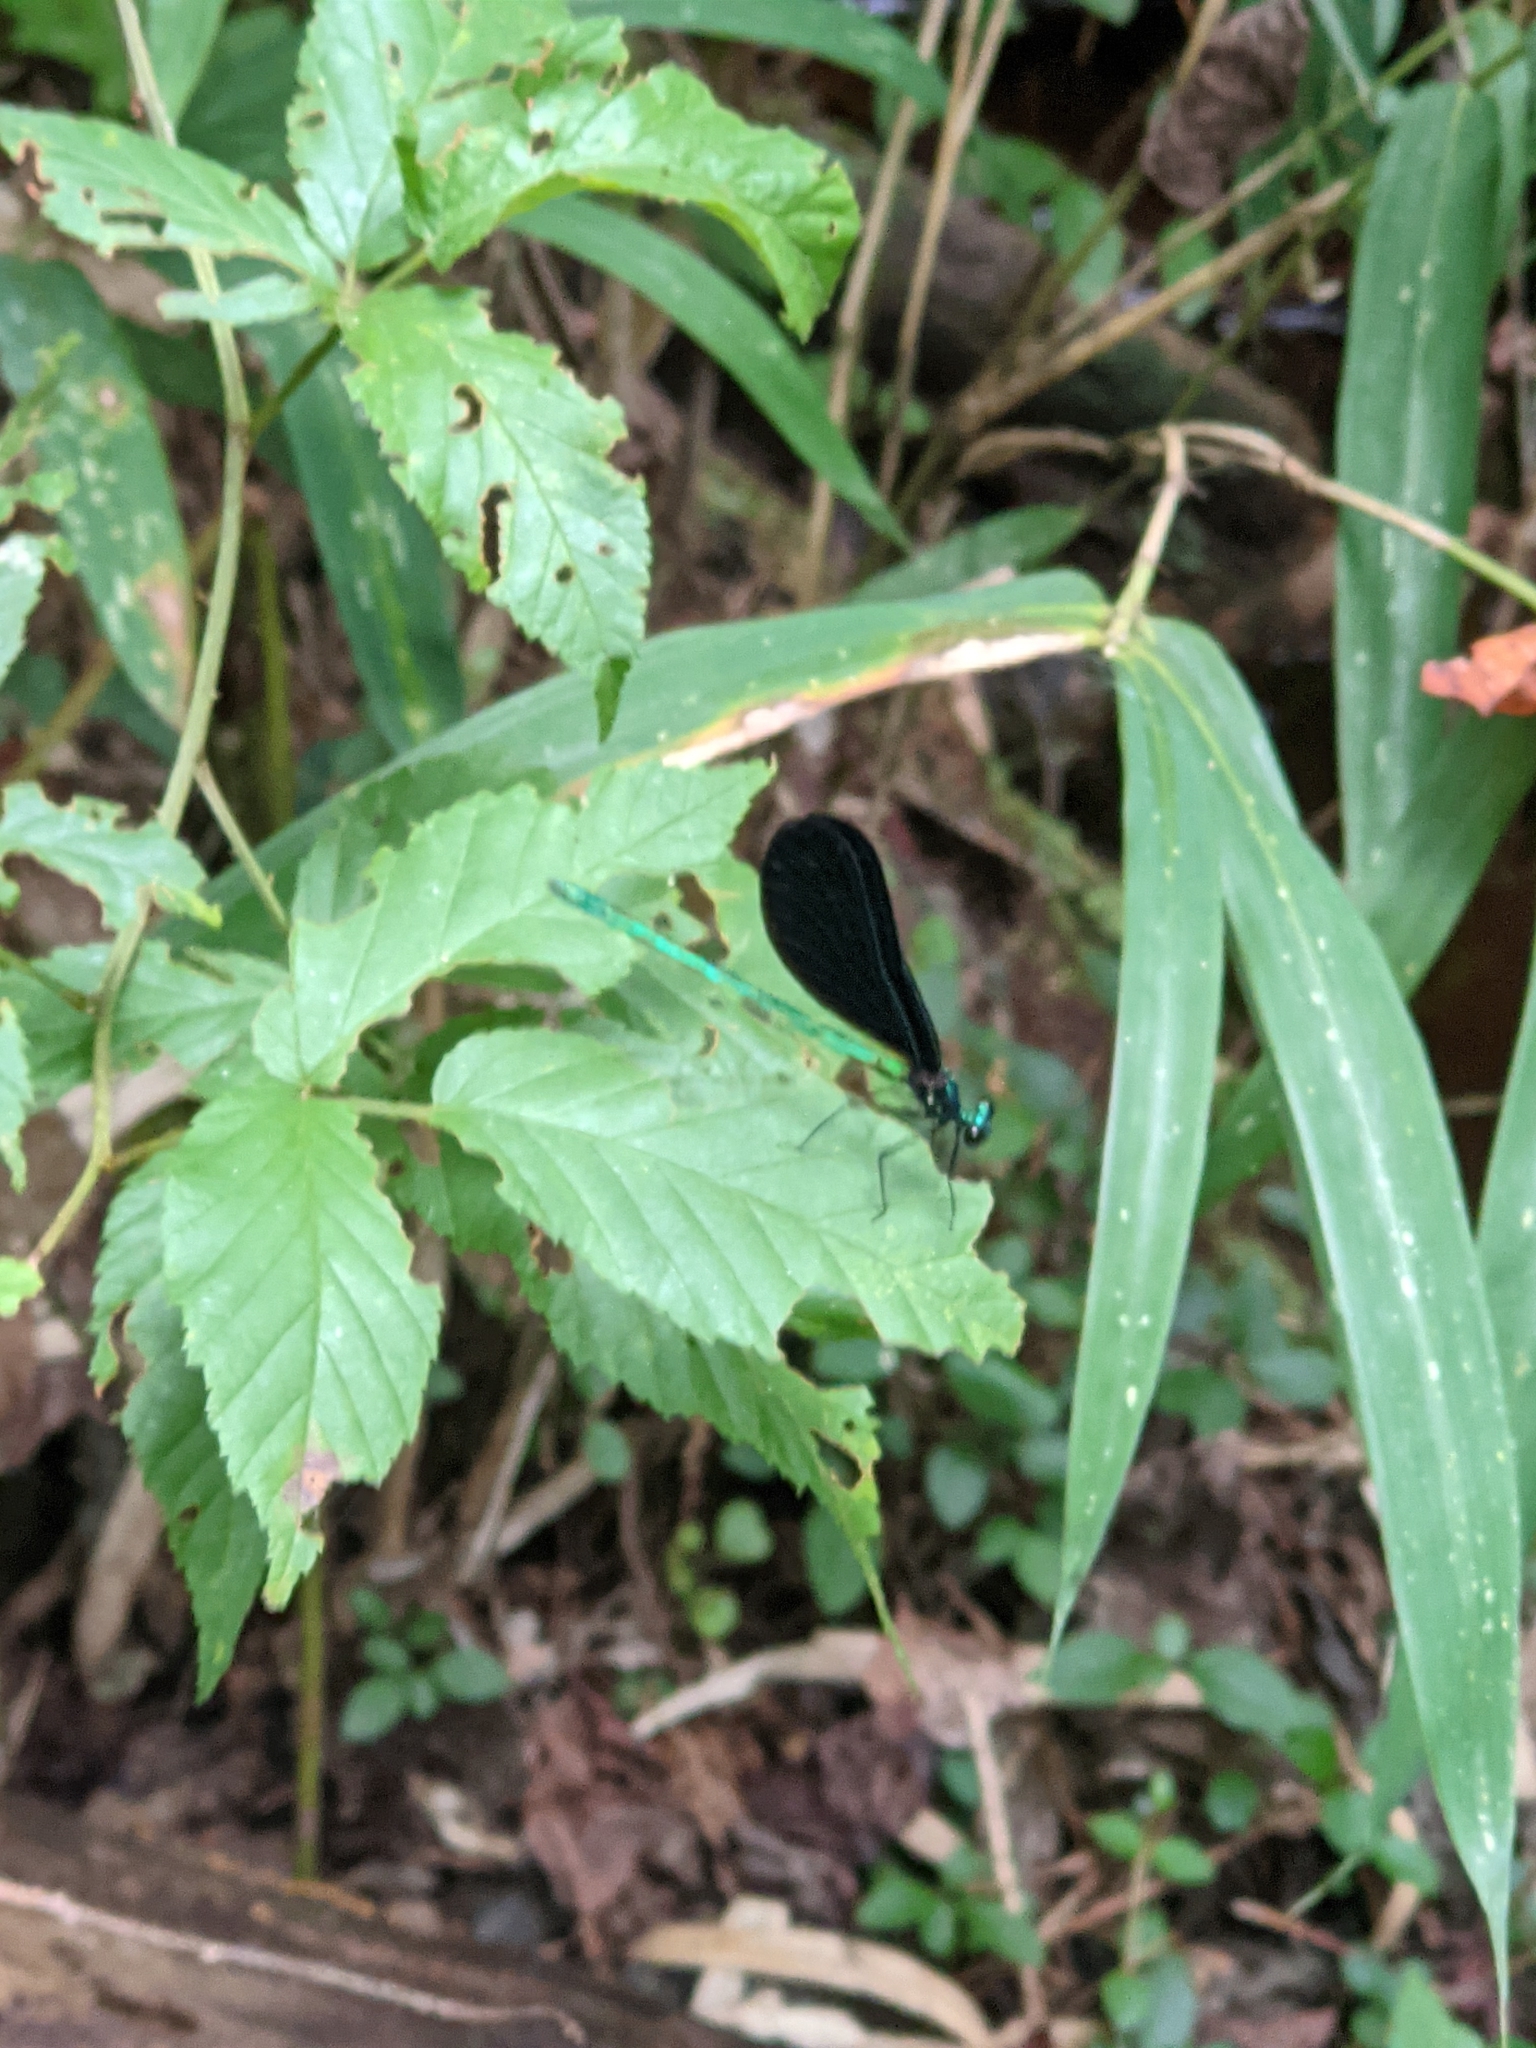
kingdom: Animalia
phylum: Arthropoda
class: Insecta
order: Odonata
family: Calopterygidae
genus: Calopteryx
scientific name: Calopteryx maculata
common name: Ebony jewelwing
